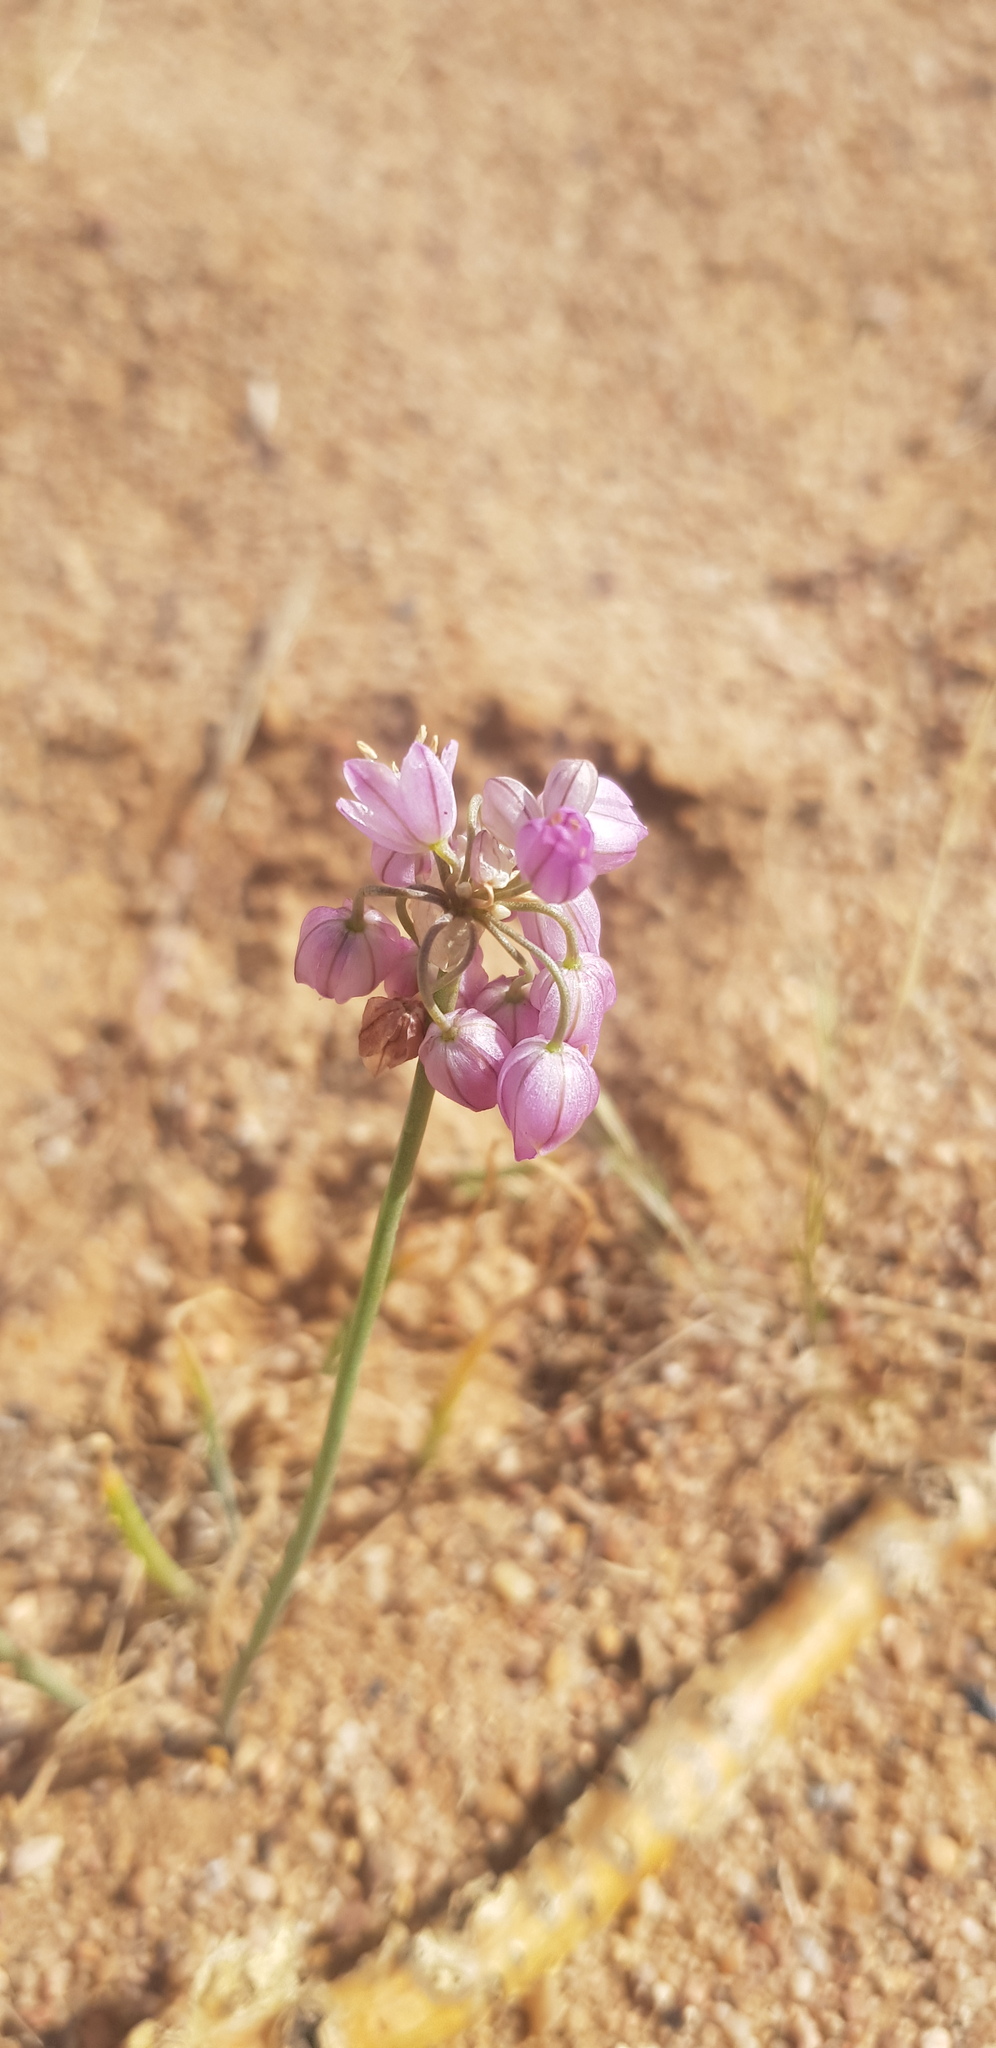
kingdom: Plantae
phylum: Tracheophyta
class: Liliopsida
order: Asparagales
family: Amaryllidaceae
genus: Allium
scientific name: Allium mongolicum
